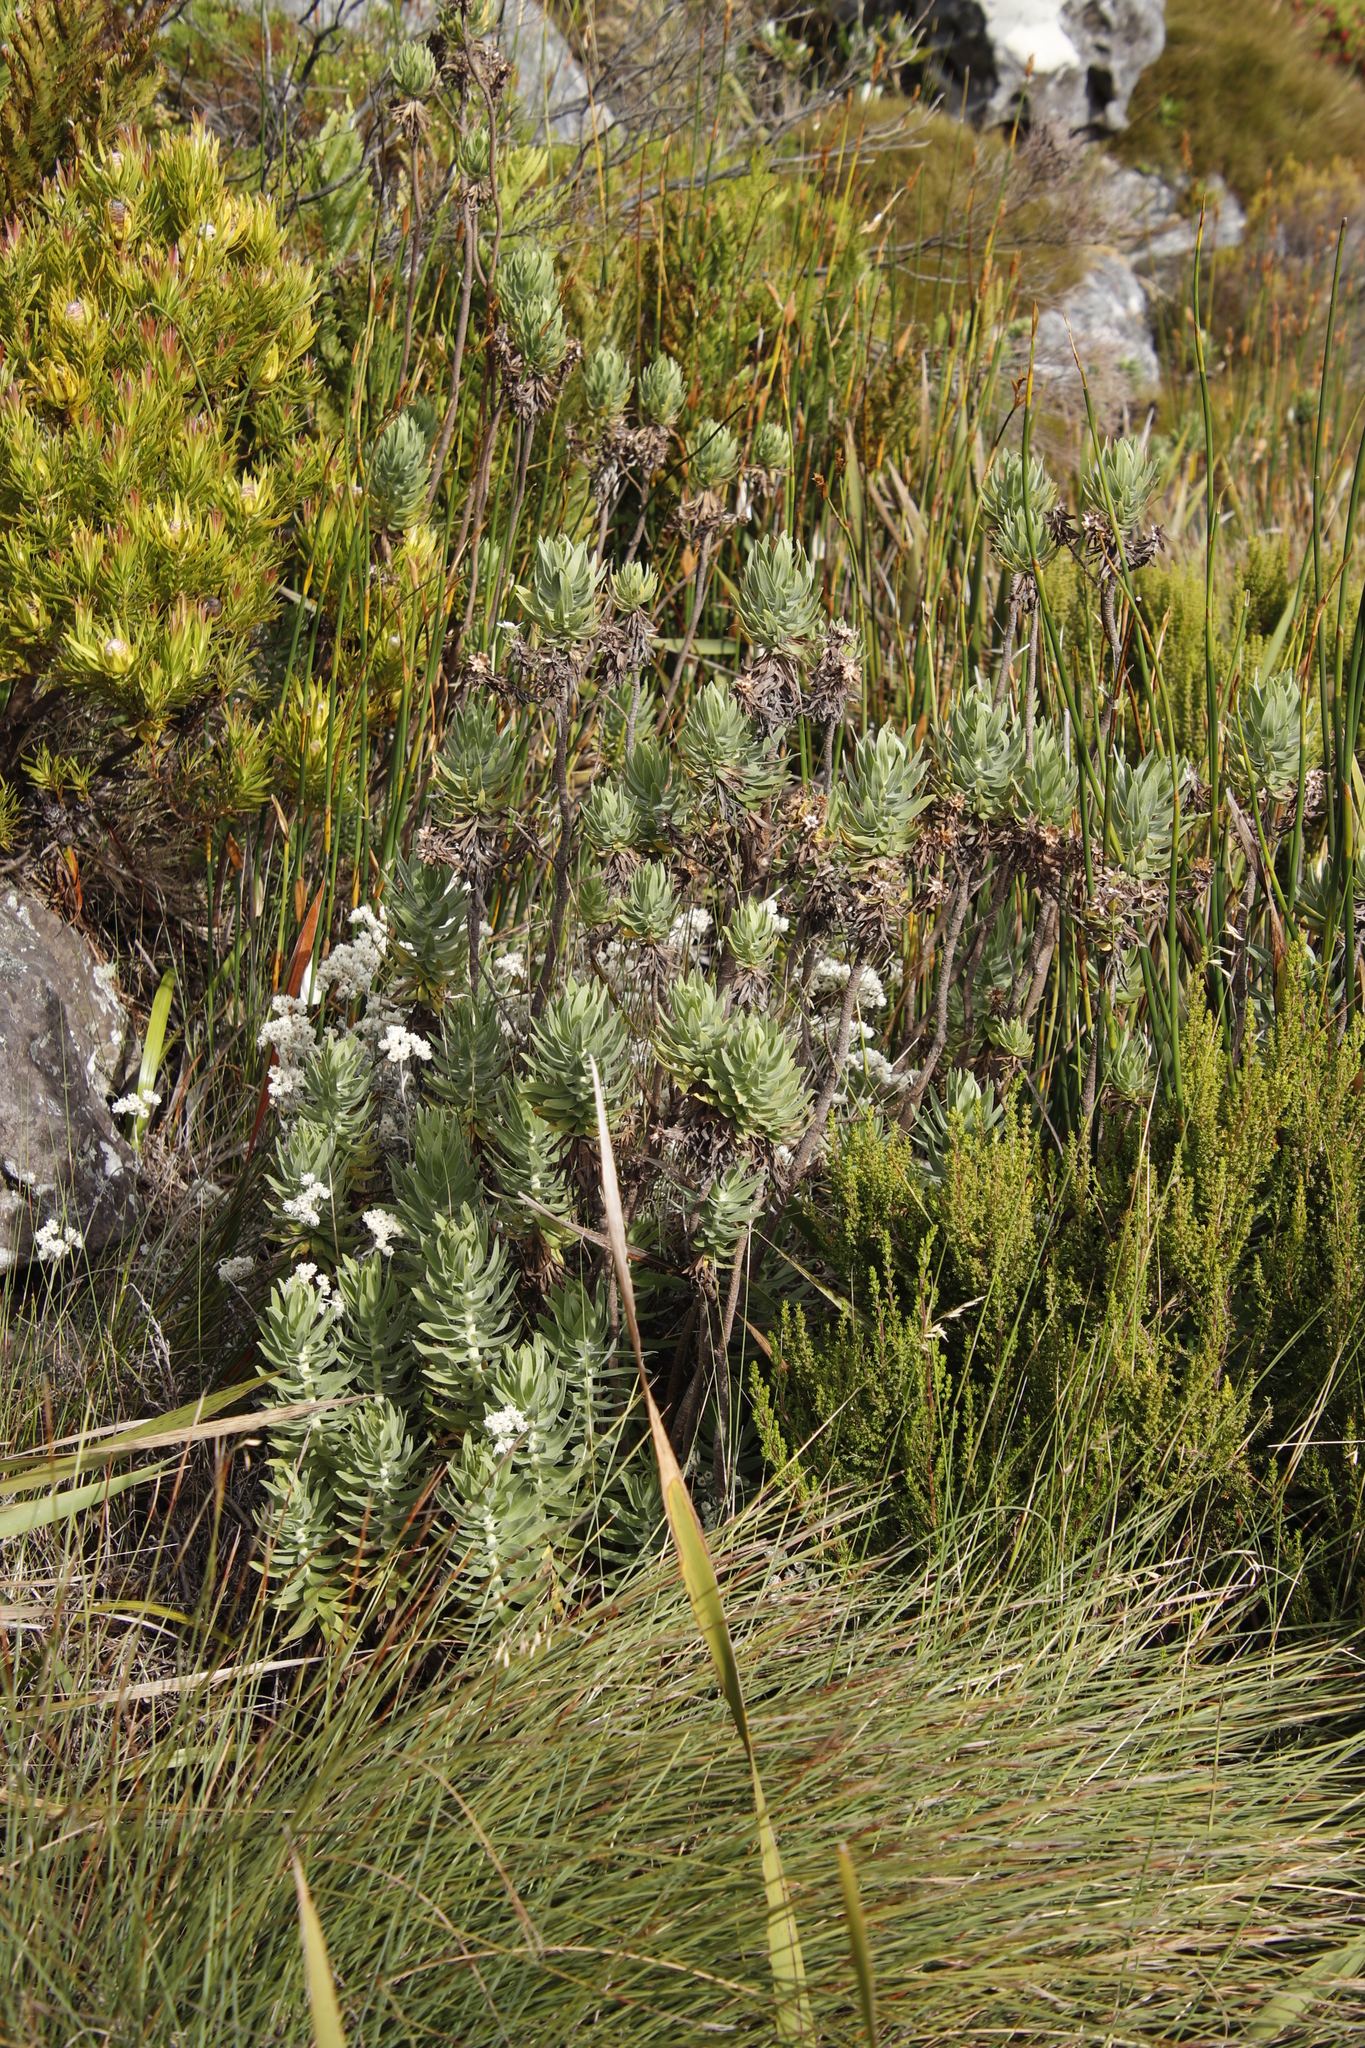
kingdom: Plantae
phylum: Tracheophyta
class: Magnoliopsida
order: Asterales
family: Asteraceae
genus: Osmitopsis
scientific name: Osmitopsis asteriscoides
